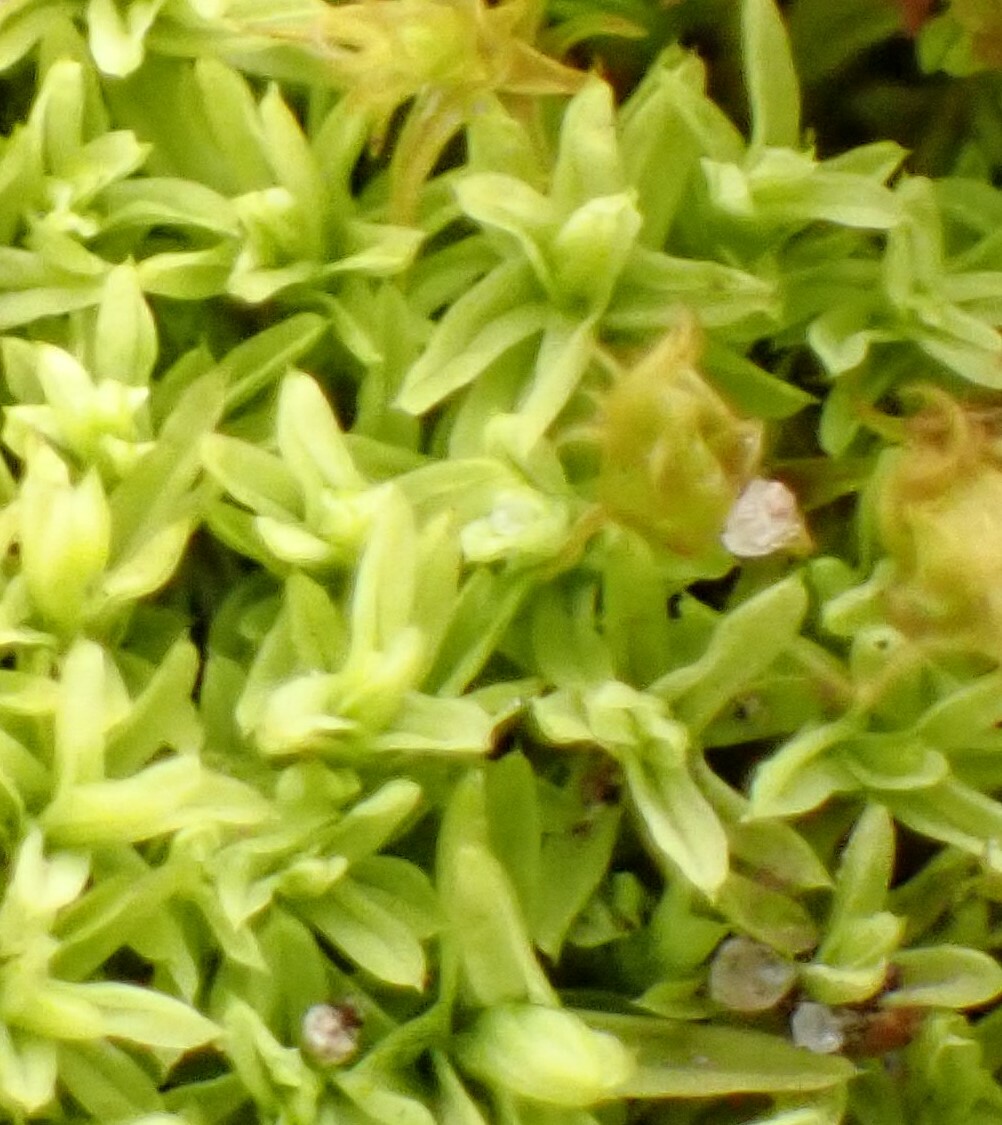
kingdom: Plantae
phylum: Bryophyta
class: Bryopsida
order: Pottiales
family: Pottiaceae
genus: Barbula
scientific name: Barbula unguiculata
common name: Prickly beard moss
